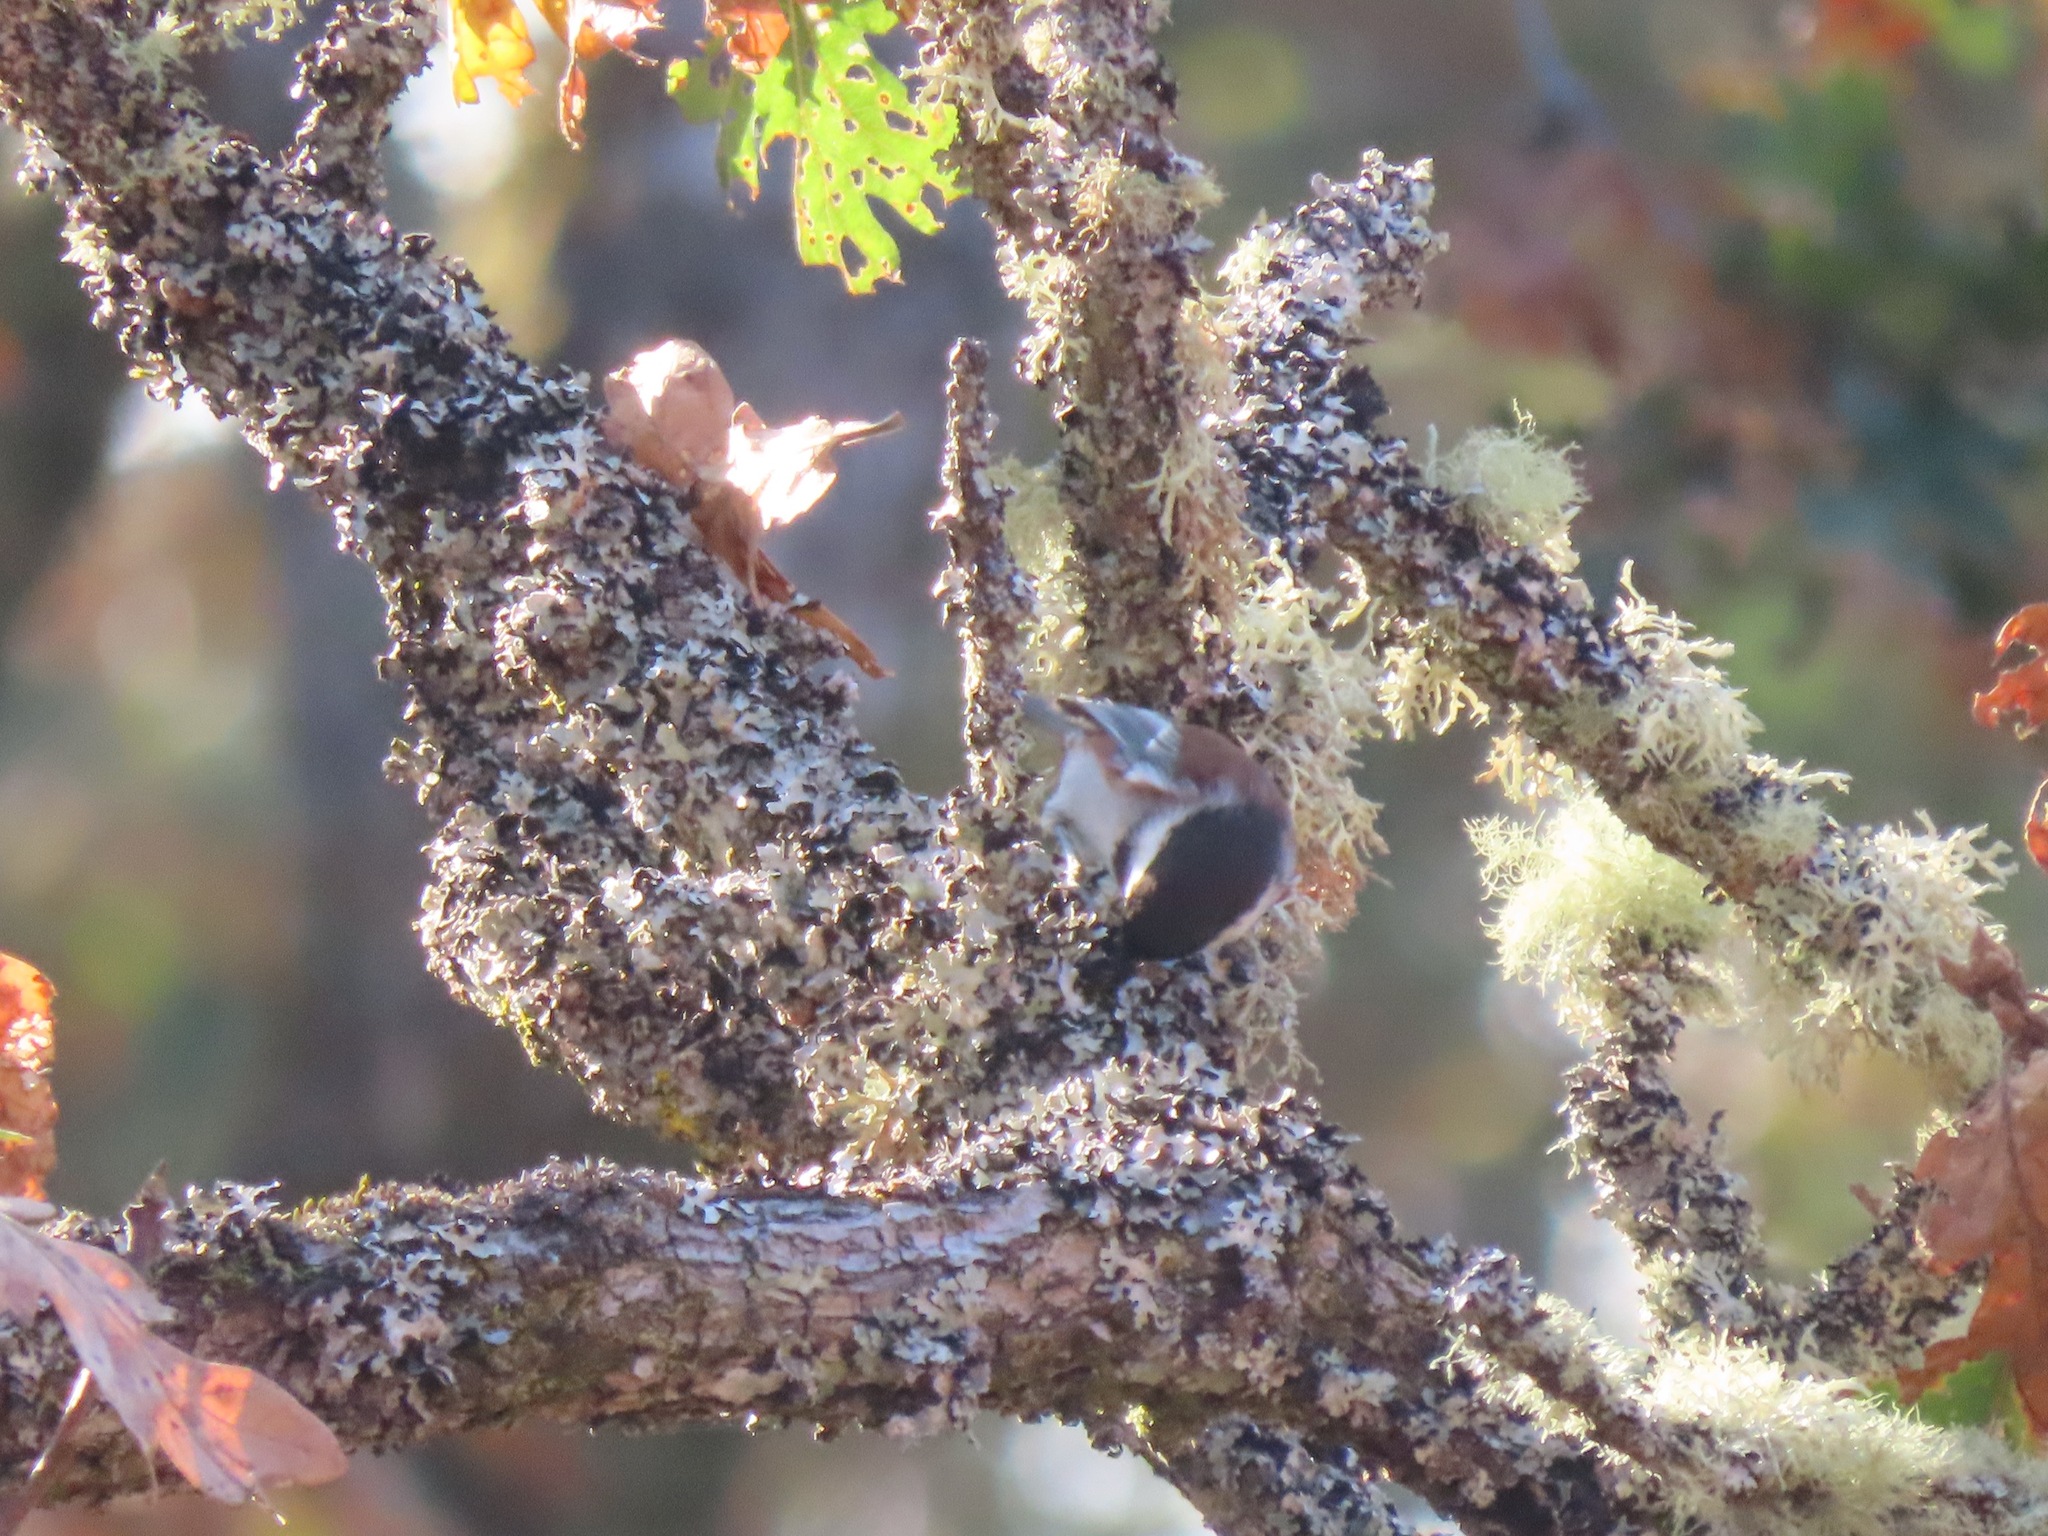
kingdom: Animalia
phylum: Chordata
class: Aves
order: Passeriformes
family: Paridae
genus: Poecile
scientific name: Poecile rufescens
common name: Chestnut-backed chickadee
